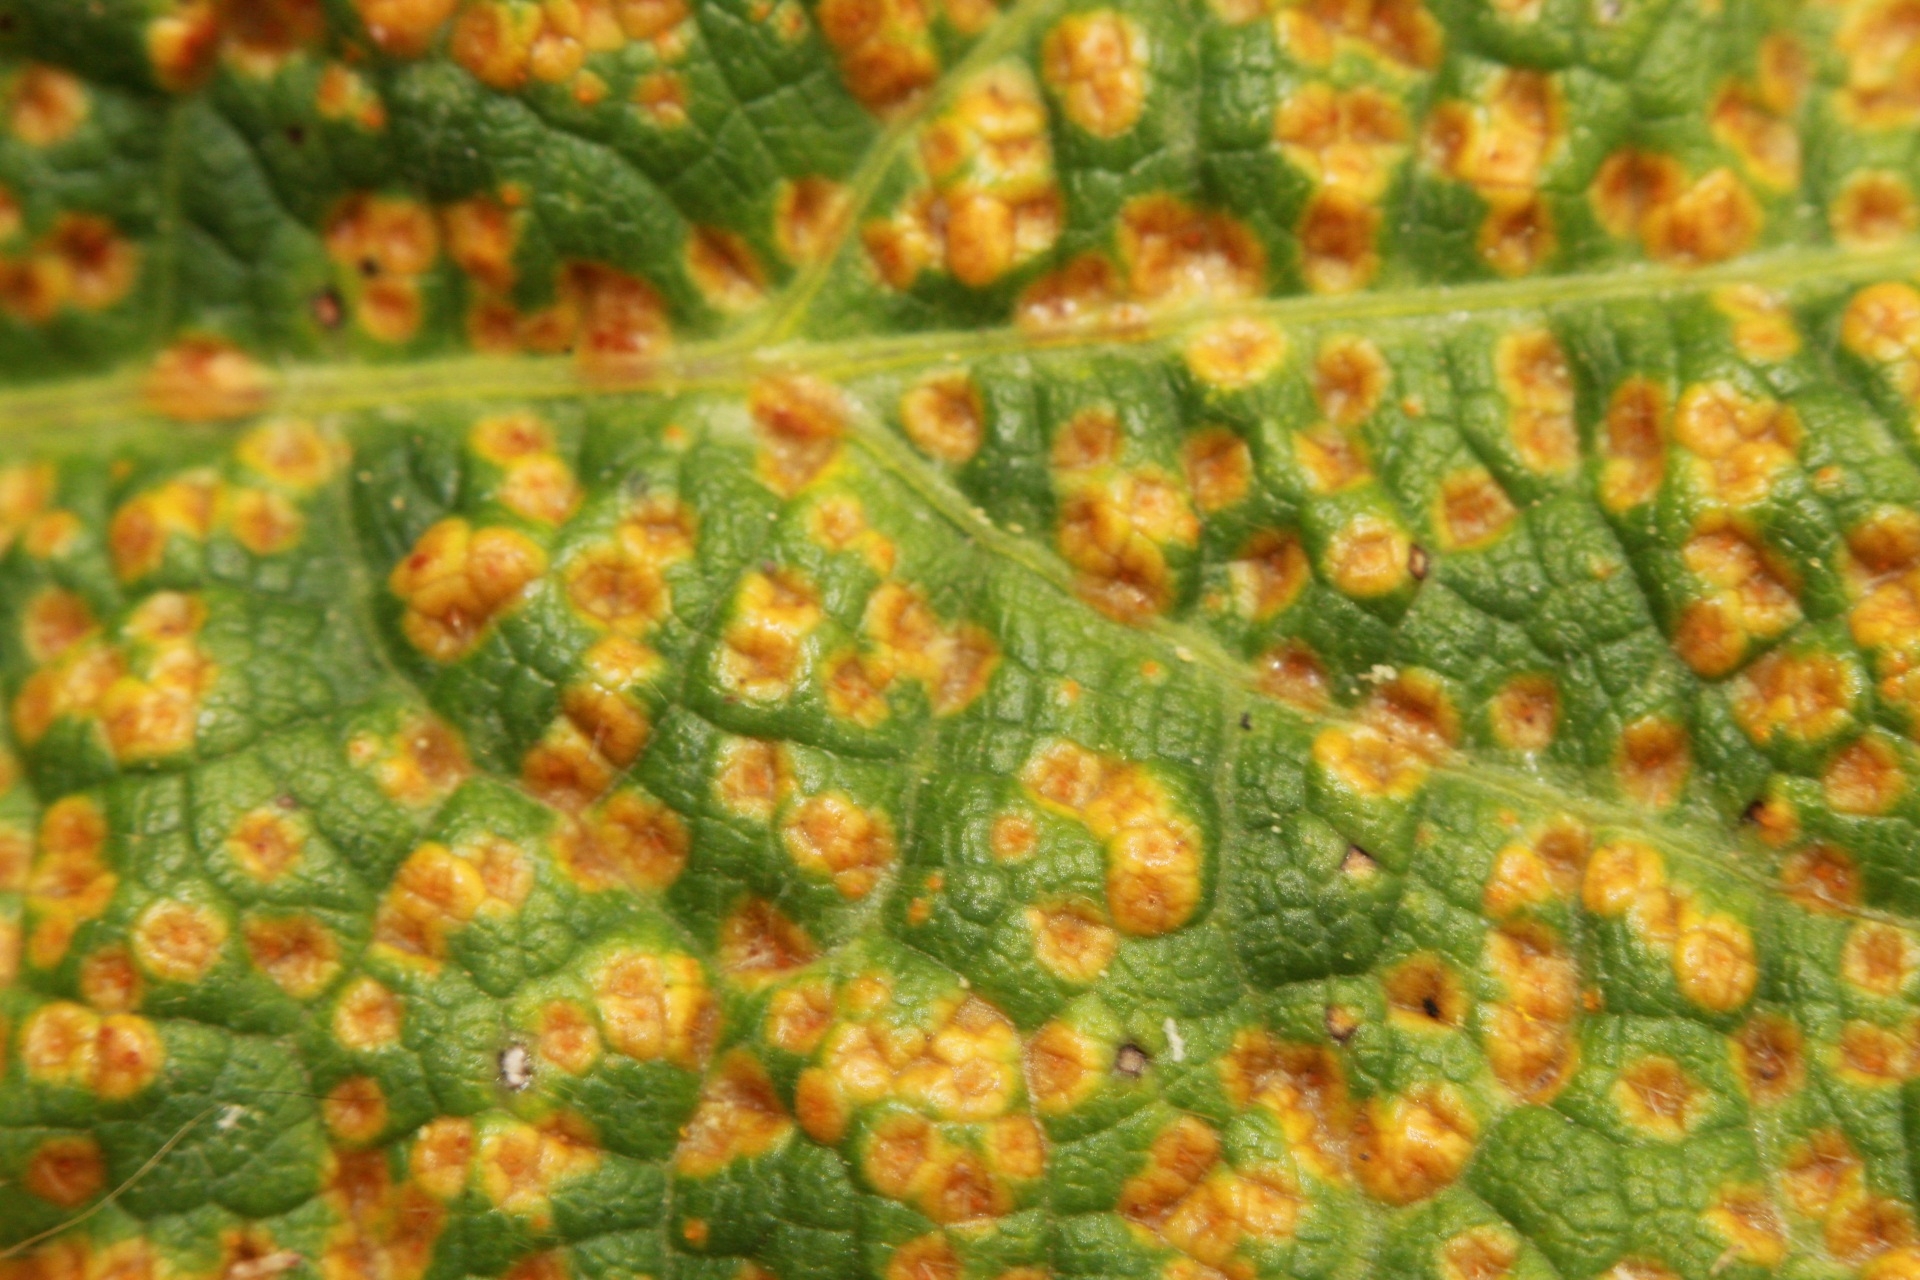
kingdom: Fungi
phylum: Basidiomycota
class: Pucciniomycetes
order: Pucciniales
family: Pucciniaceae
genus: Puccinia
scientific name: Puccinia malvacearum
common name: Hollyhock rust
